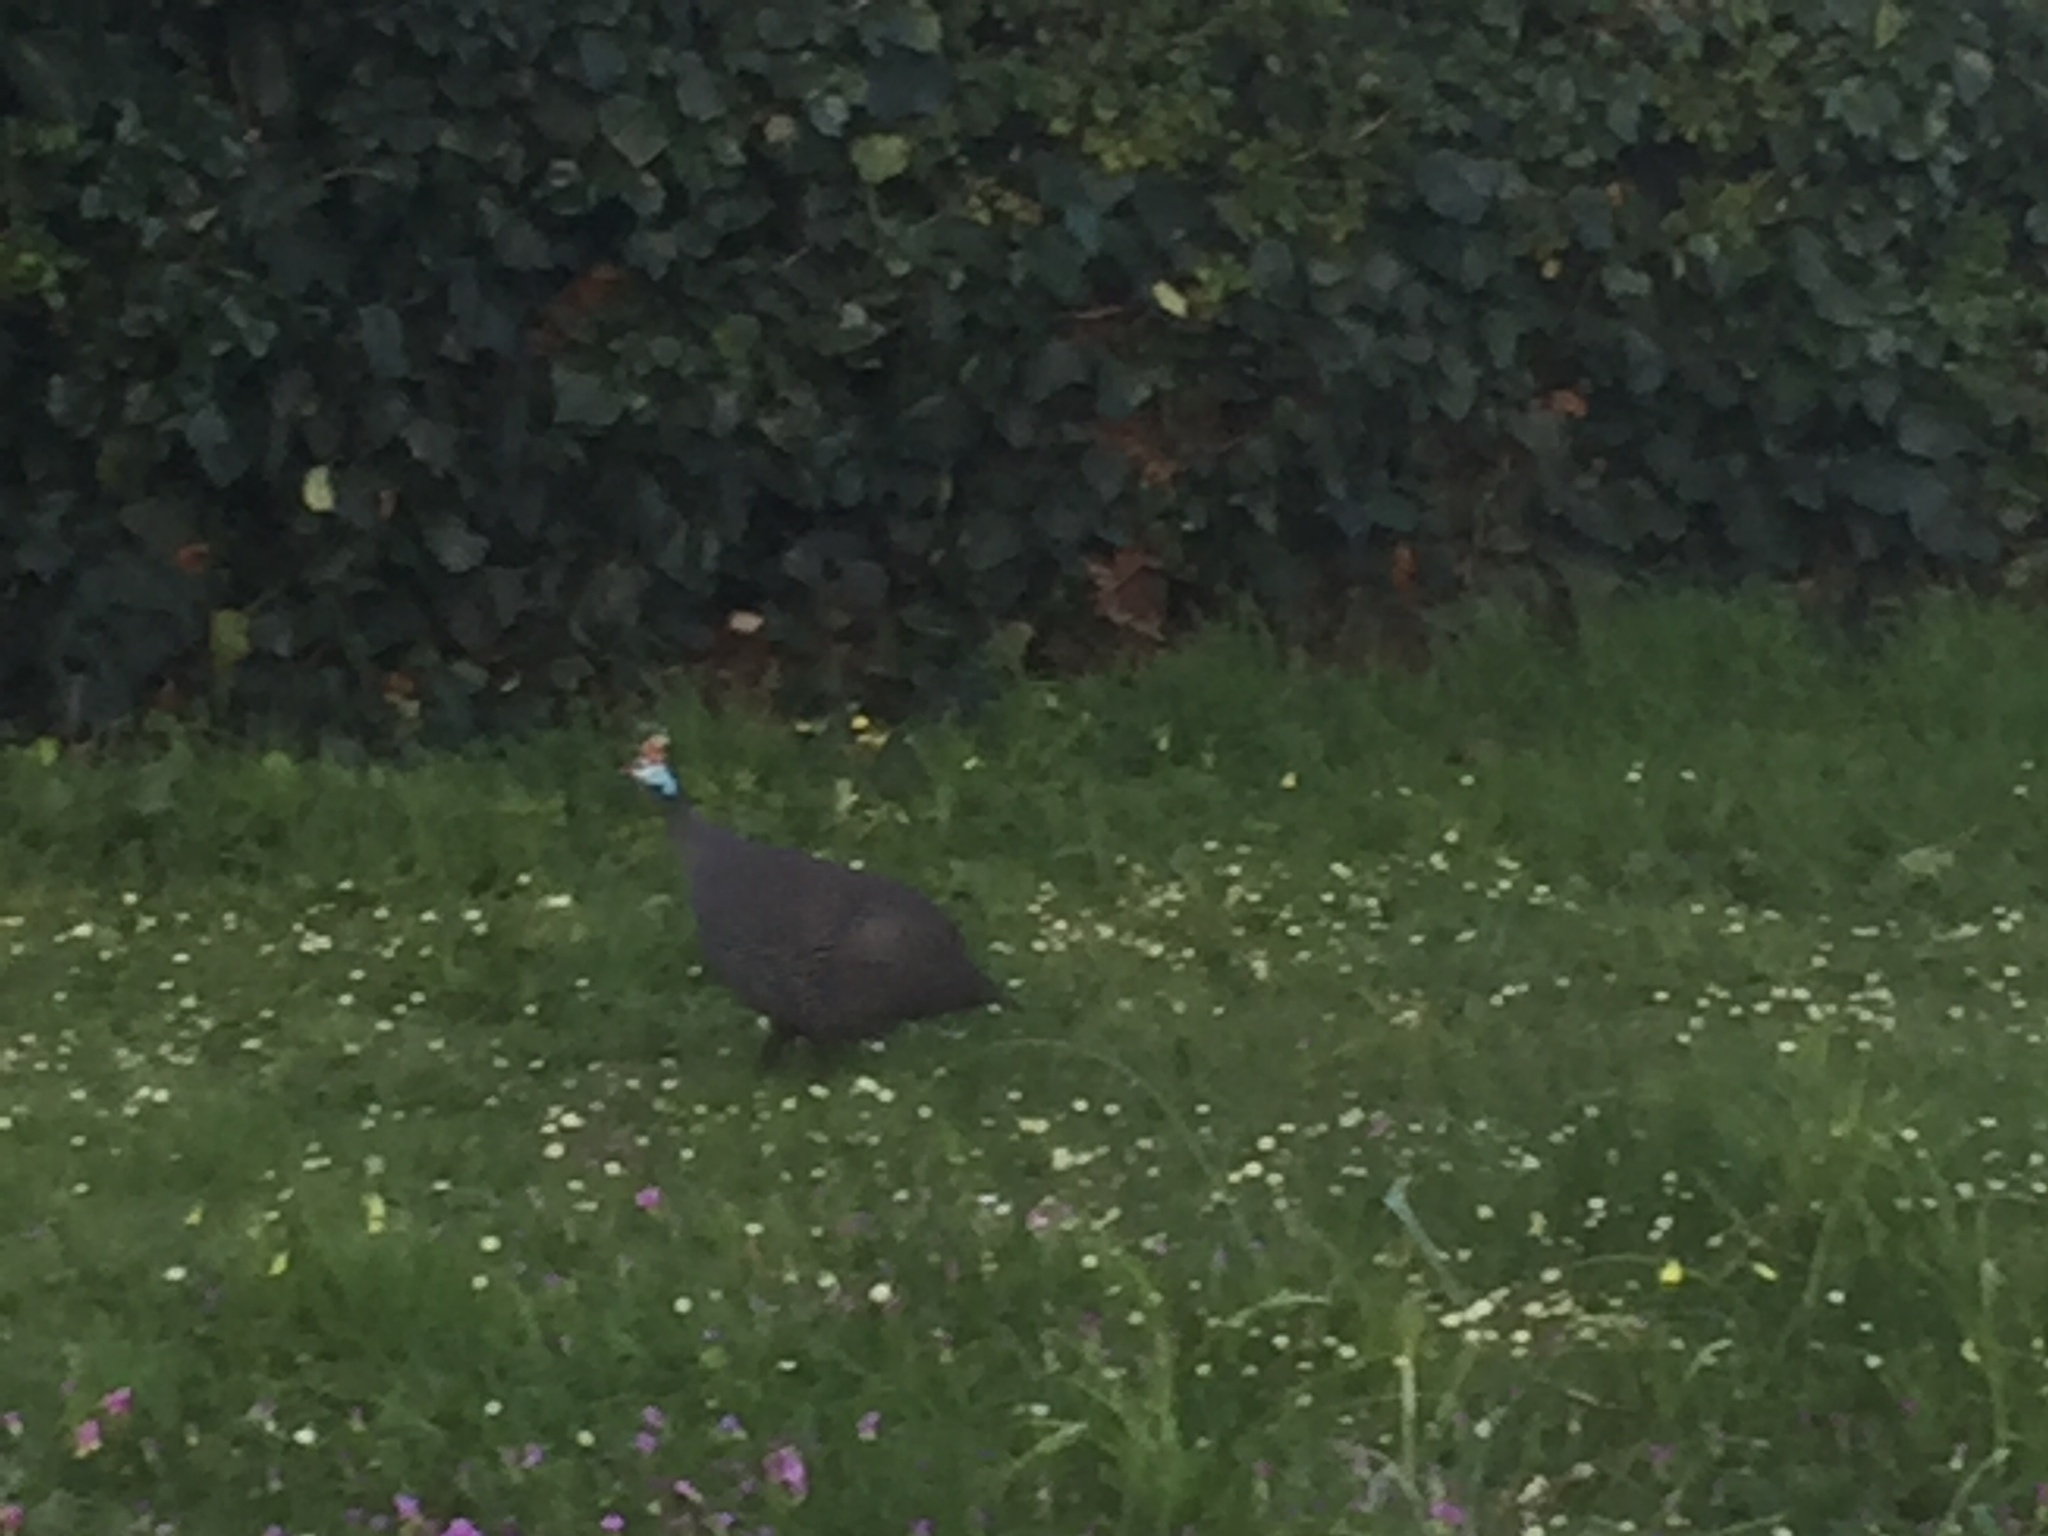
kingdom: Animalia
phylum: Chordata
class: Aves
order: Galliformes
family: Numididae
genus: Numida
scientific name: Numida meleagris
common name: Helmeted guineafowl
